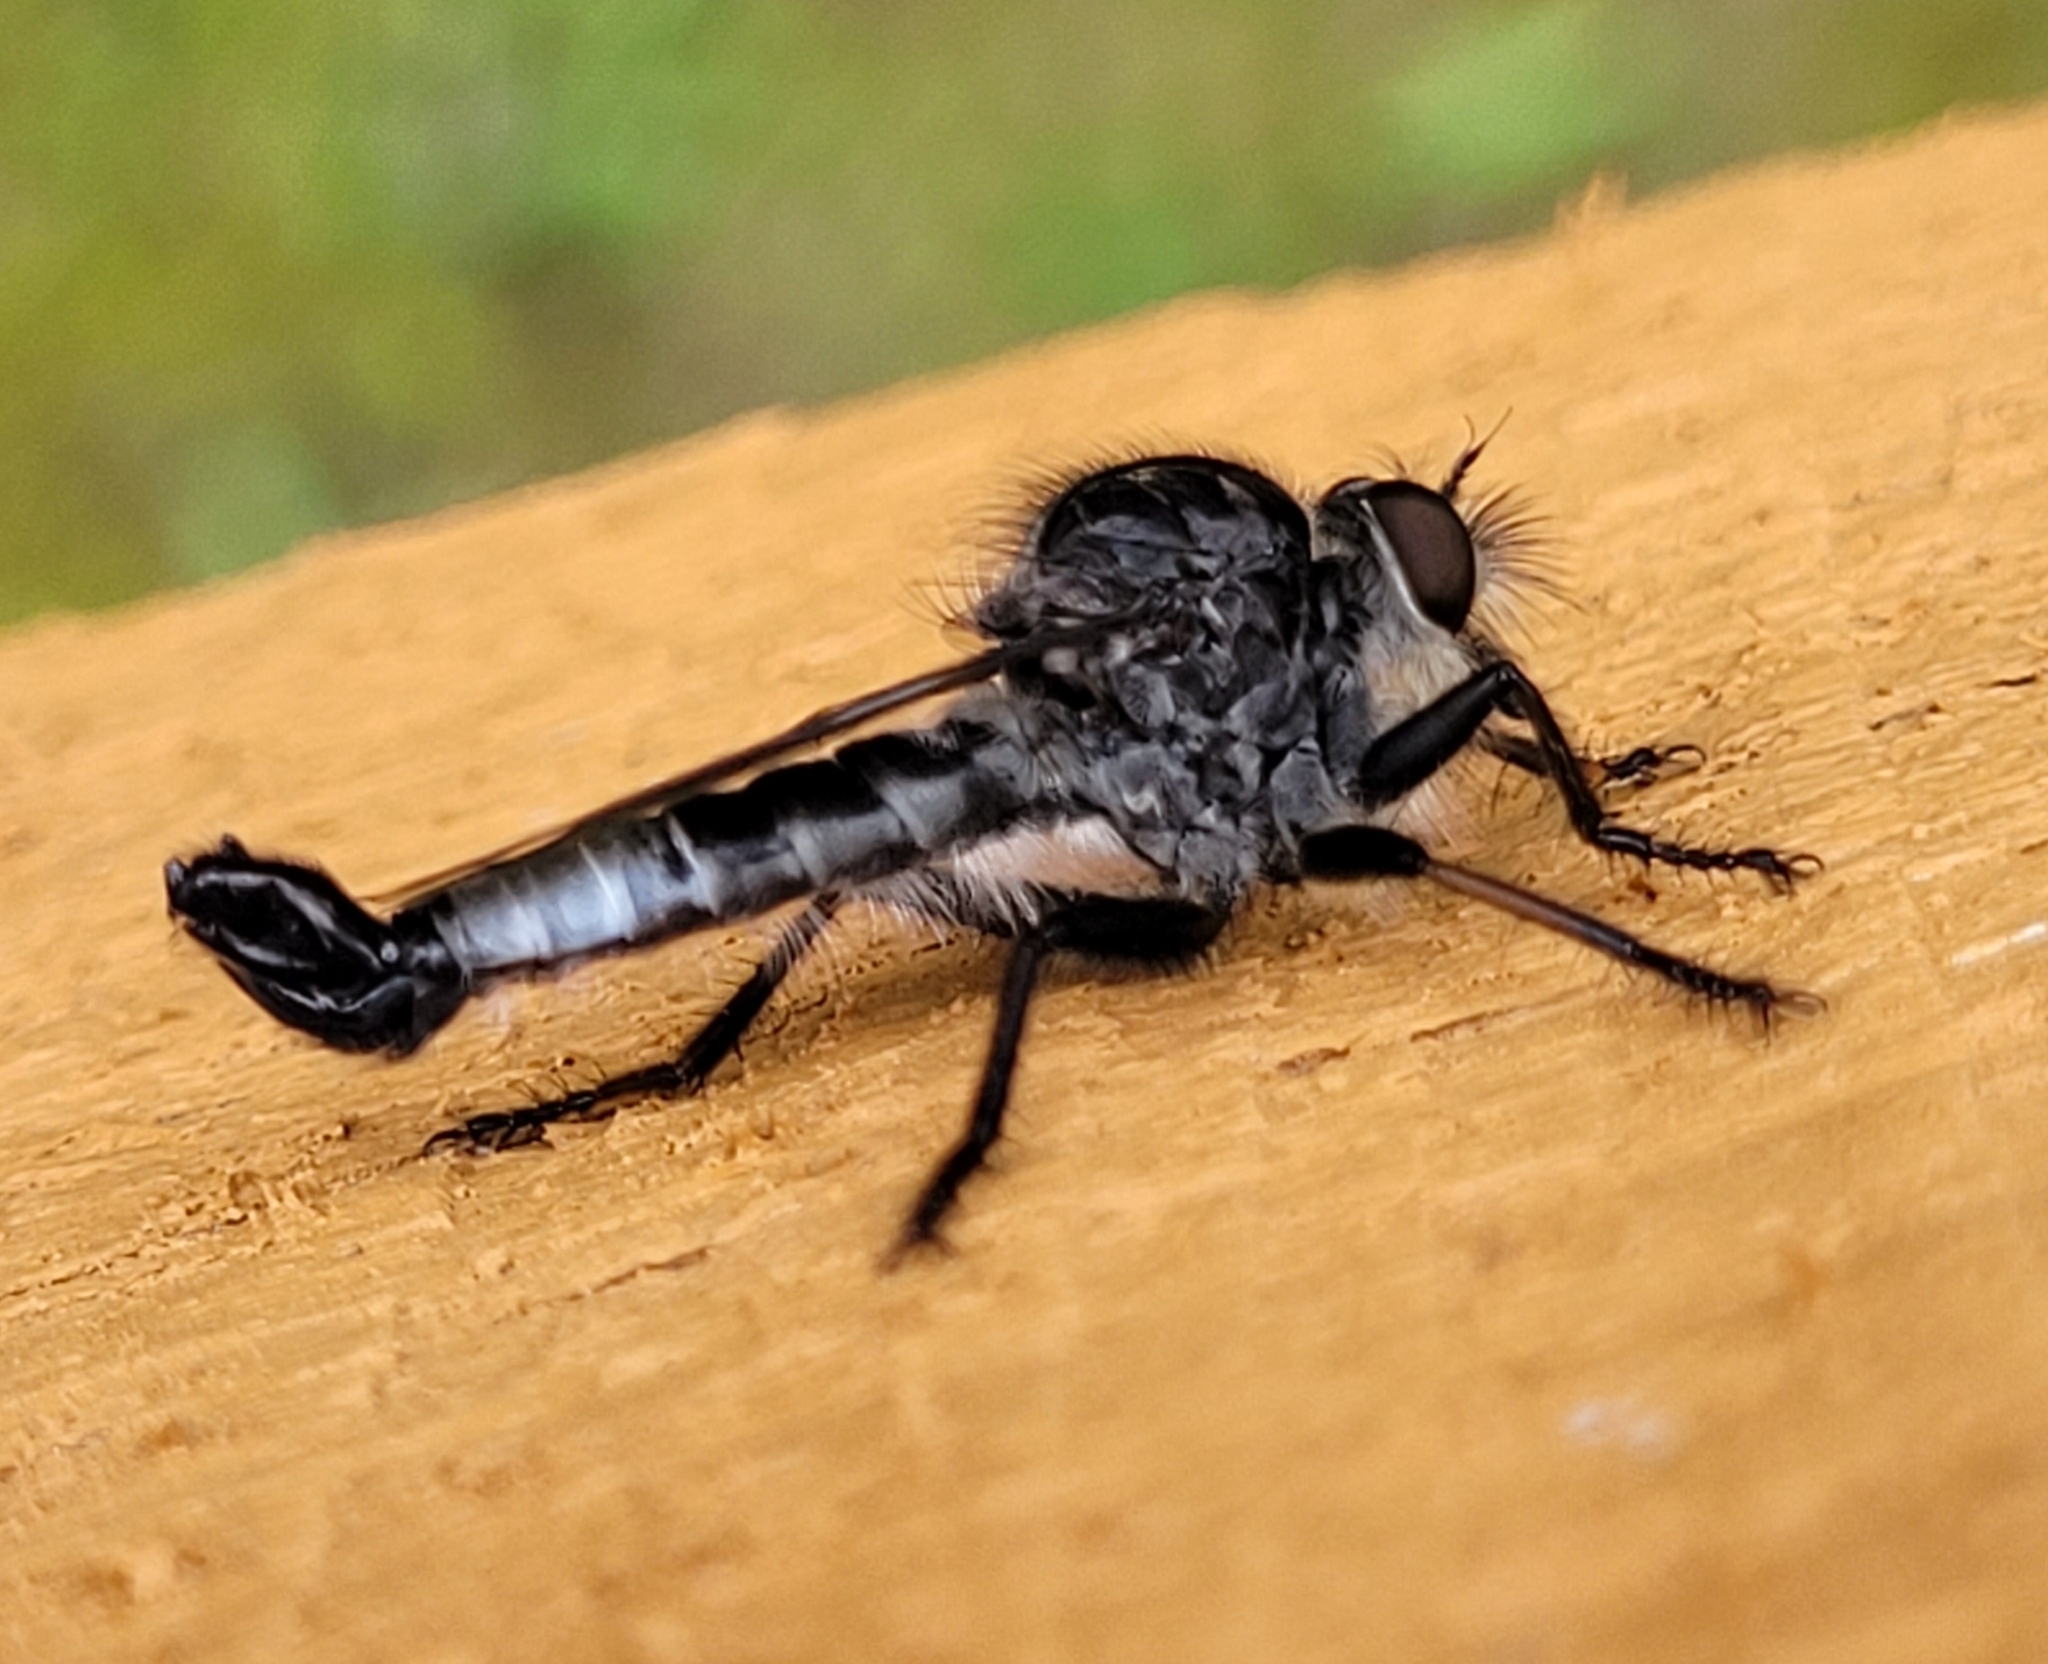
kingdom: Animalia
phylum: Arthropoda
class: Insecta
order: Diptera
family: Asilidae
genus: Efferia
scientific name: Efferia aestuans
